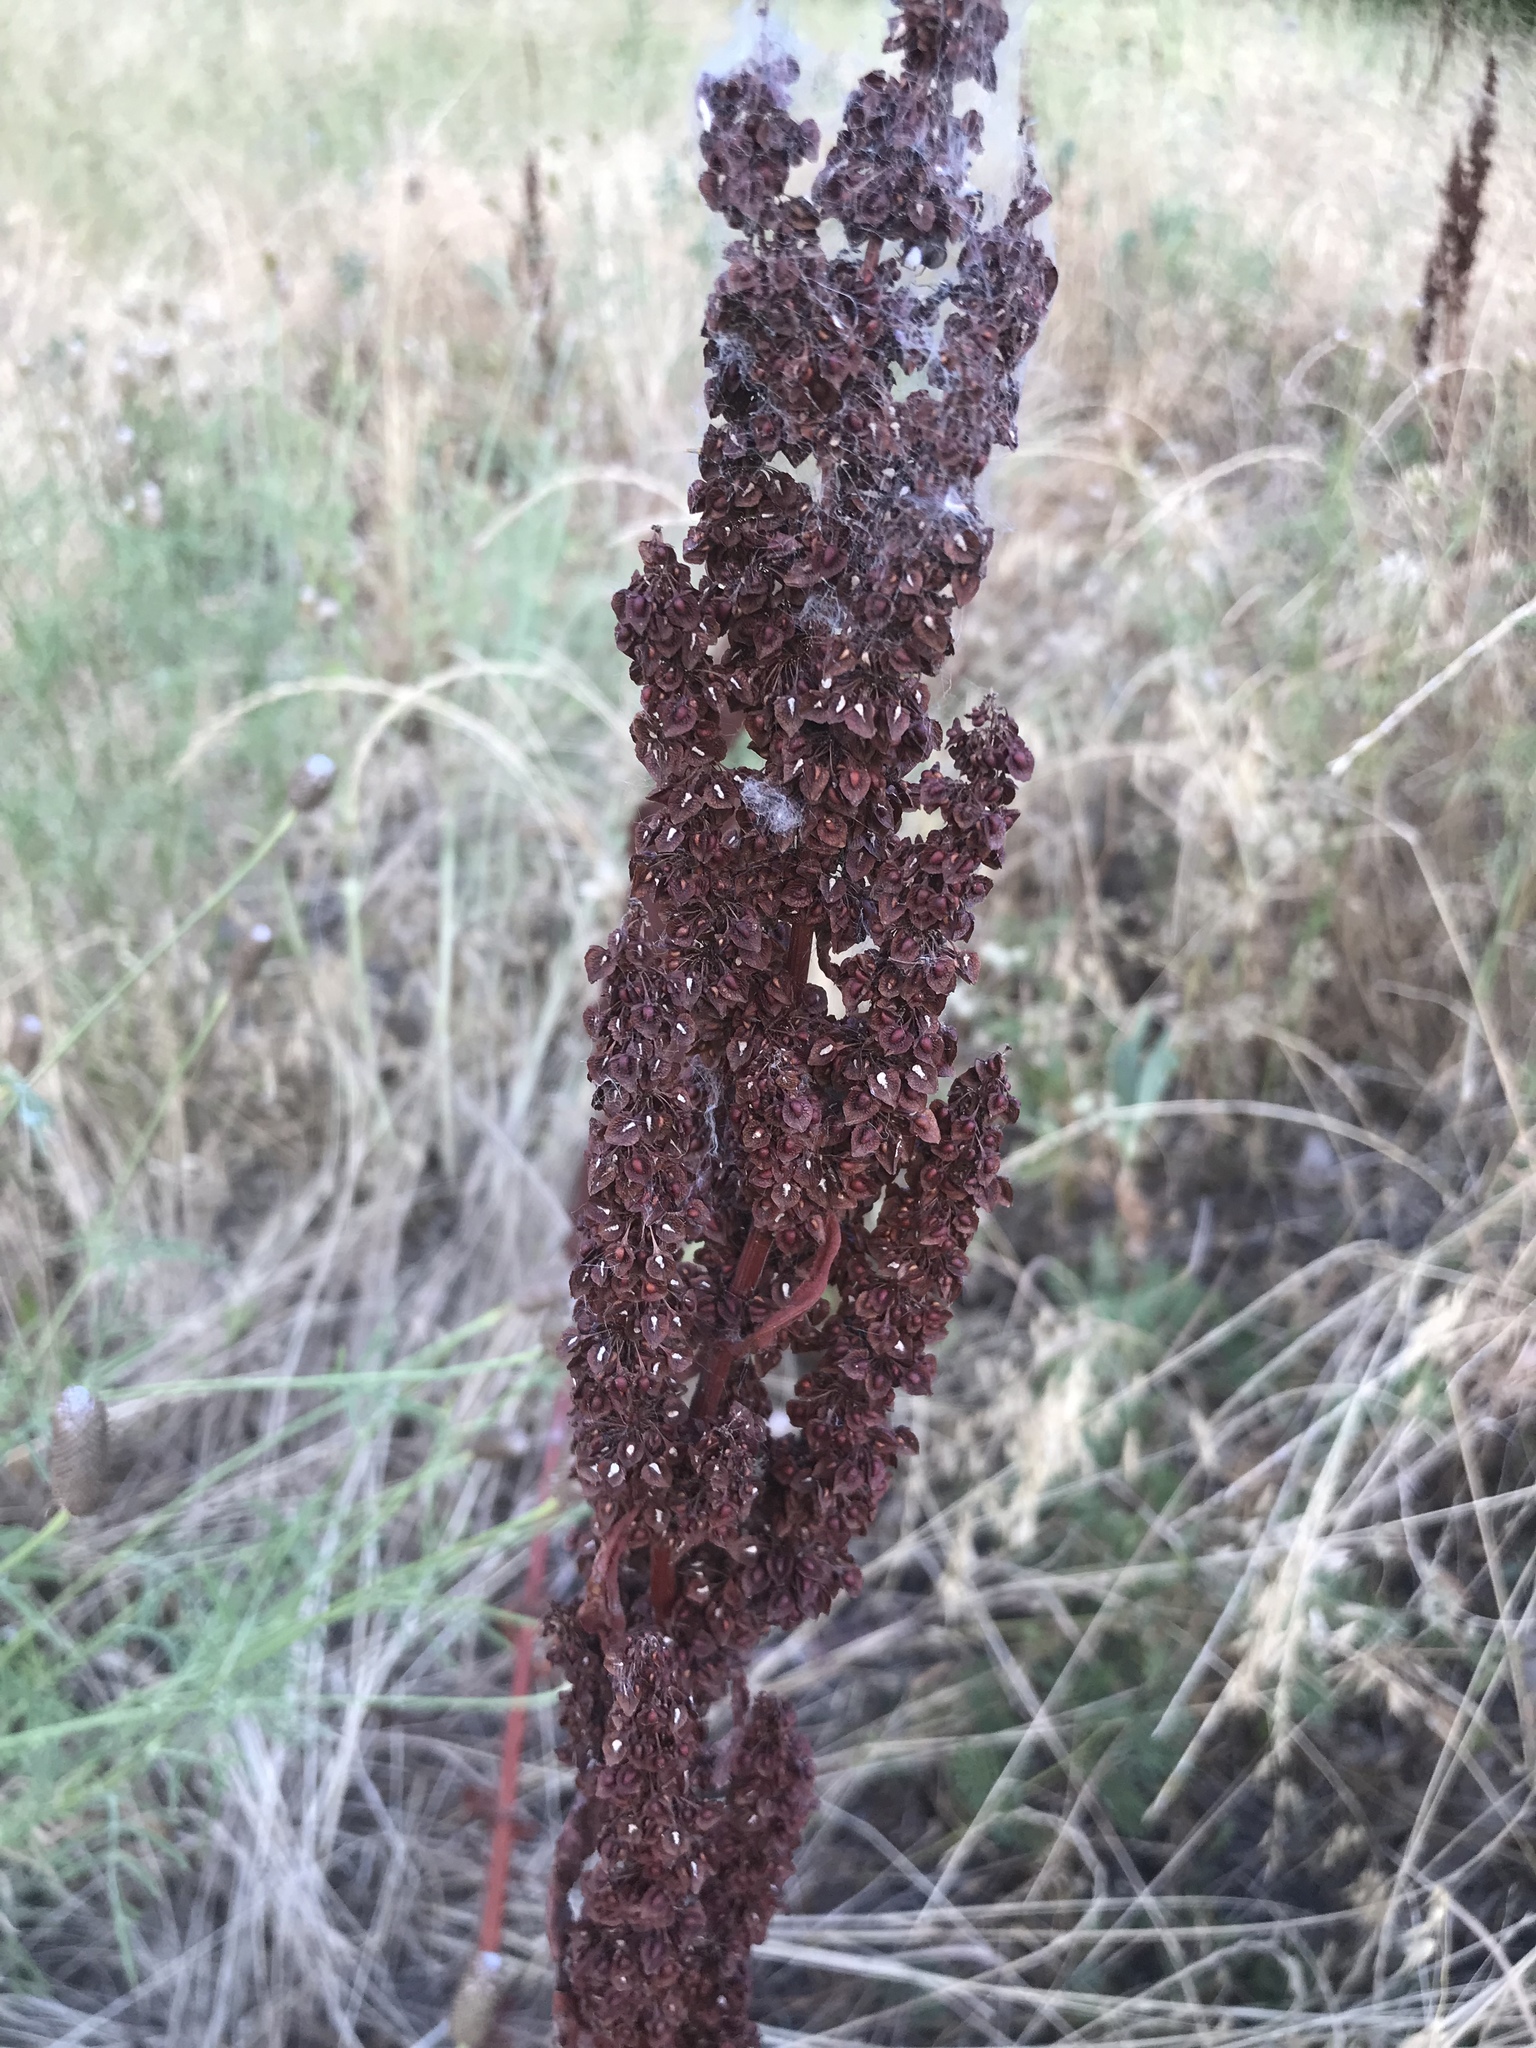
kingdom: Plantae
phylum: Tracheophyta
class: Magnoliopsida
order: Caryophyllales
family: Polygonaceae
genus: Rumex
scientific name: Rumex crispus
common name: Curled dock
